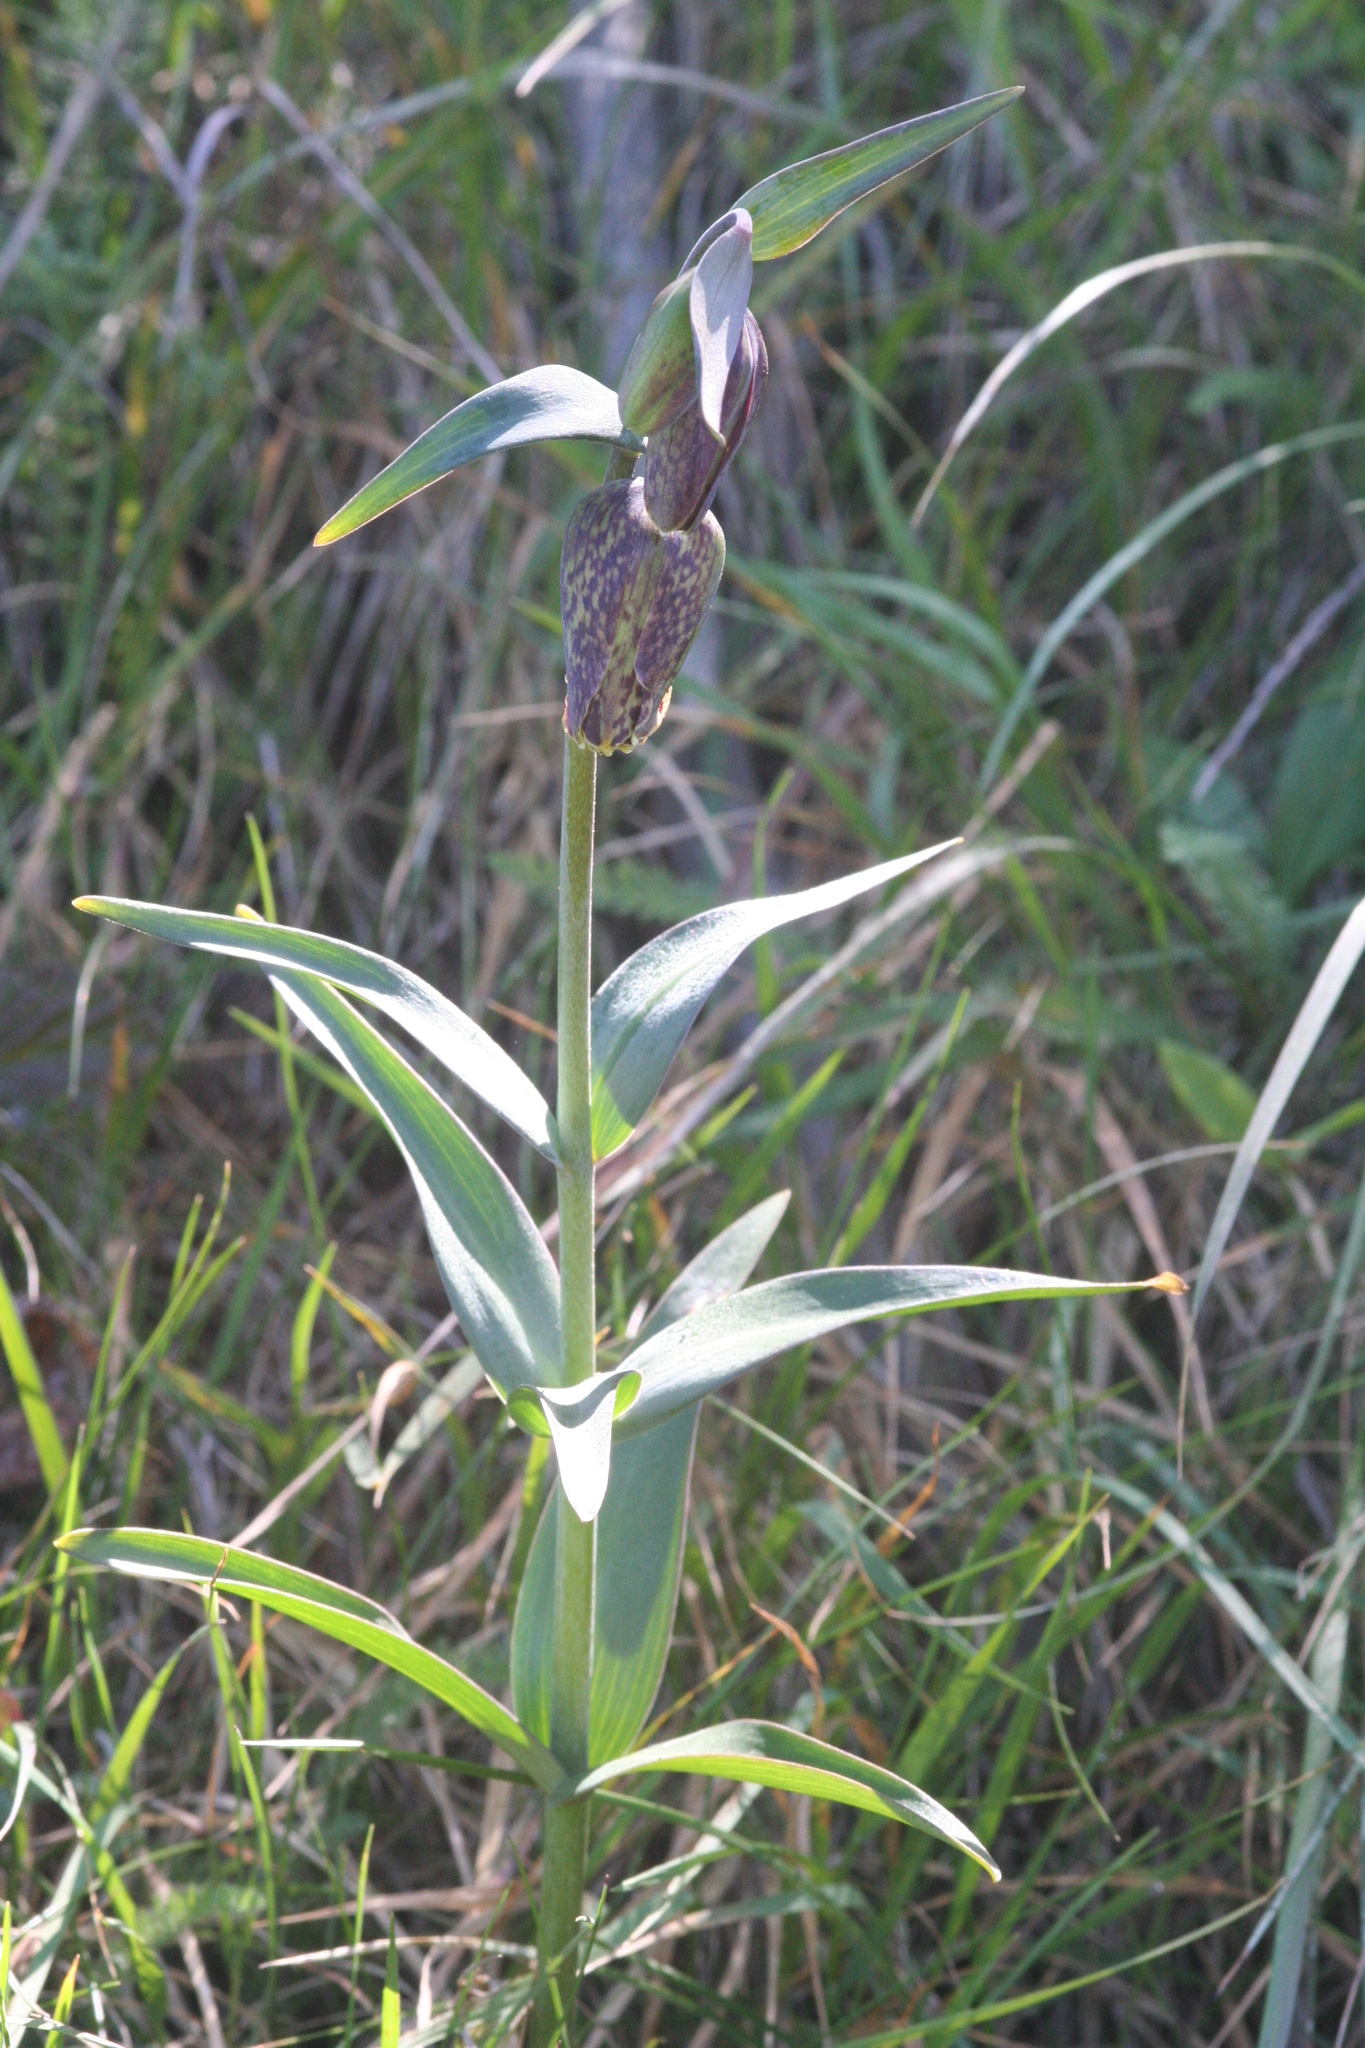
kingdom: Plantae
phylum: Tracheophyta
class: Liliopsida
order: Liliales
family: Liliaceae
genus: Fritillaria
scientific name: Fritillaria affinis
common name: Ojai fritillary
